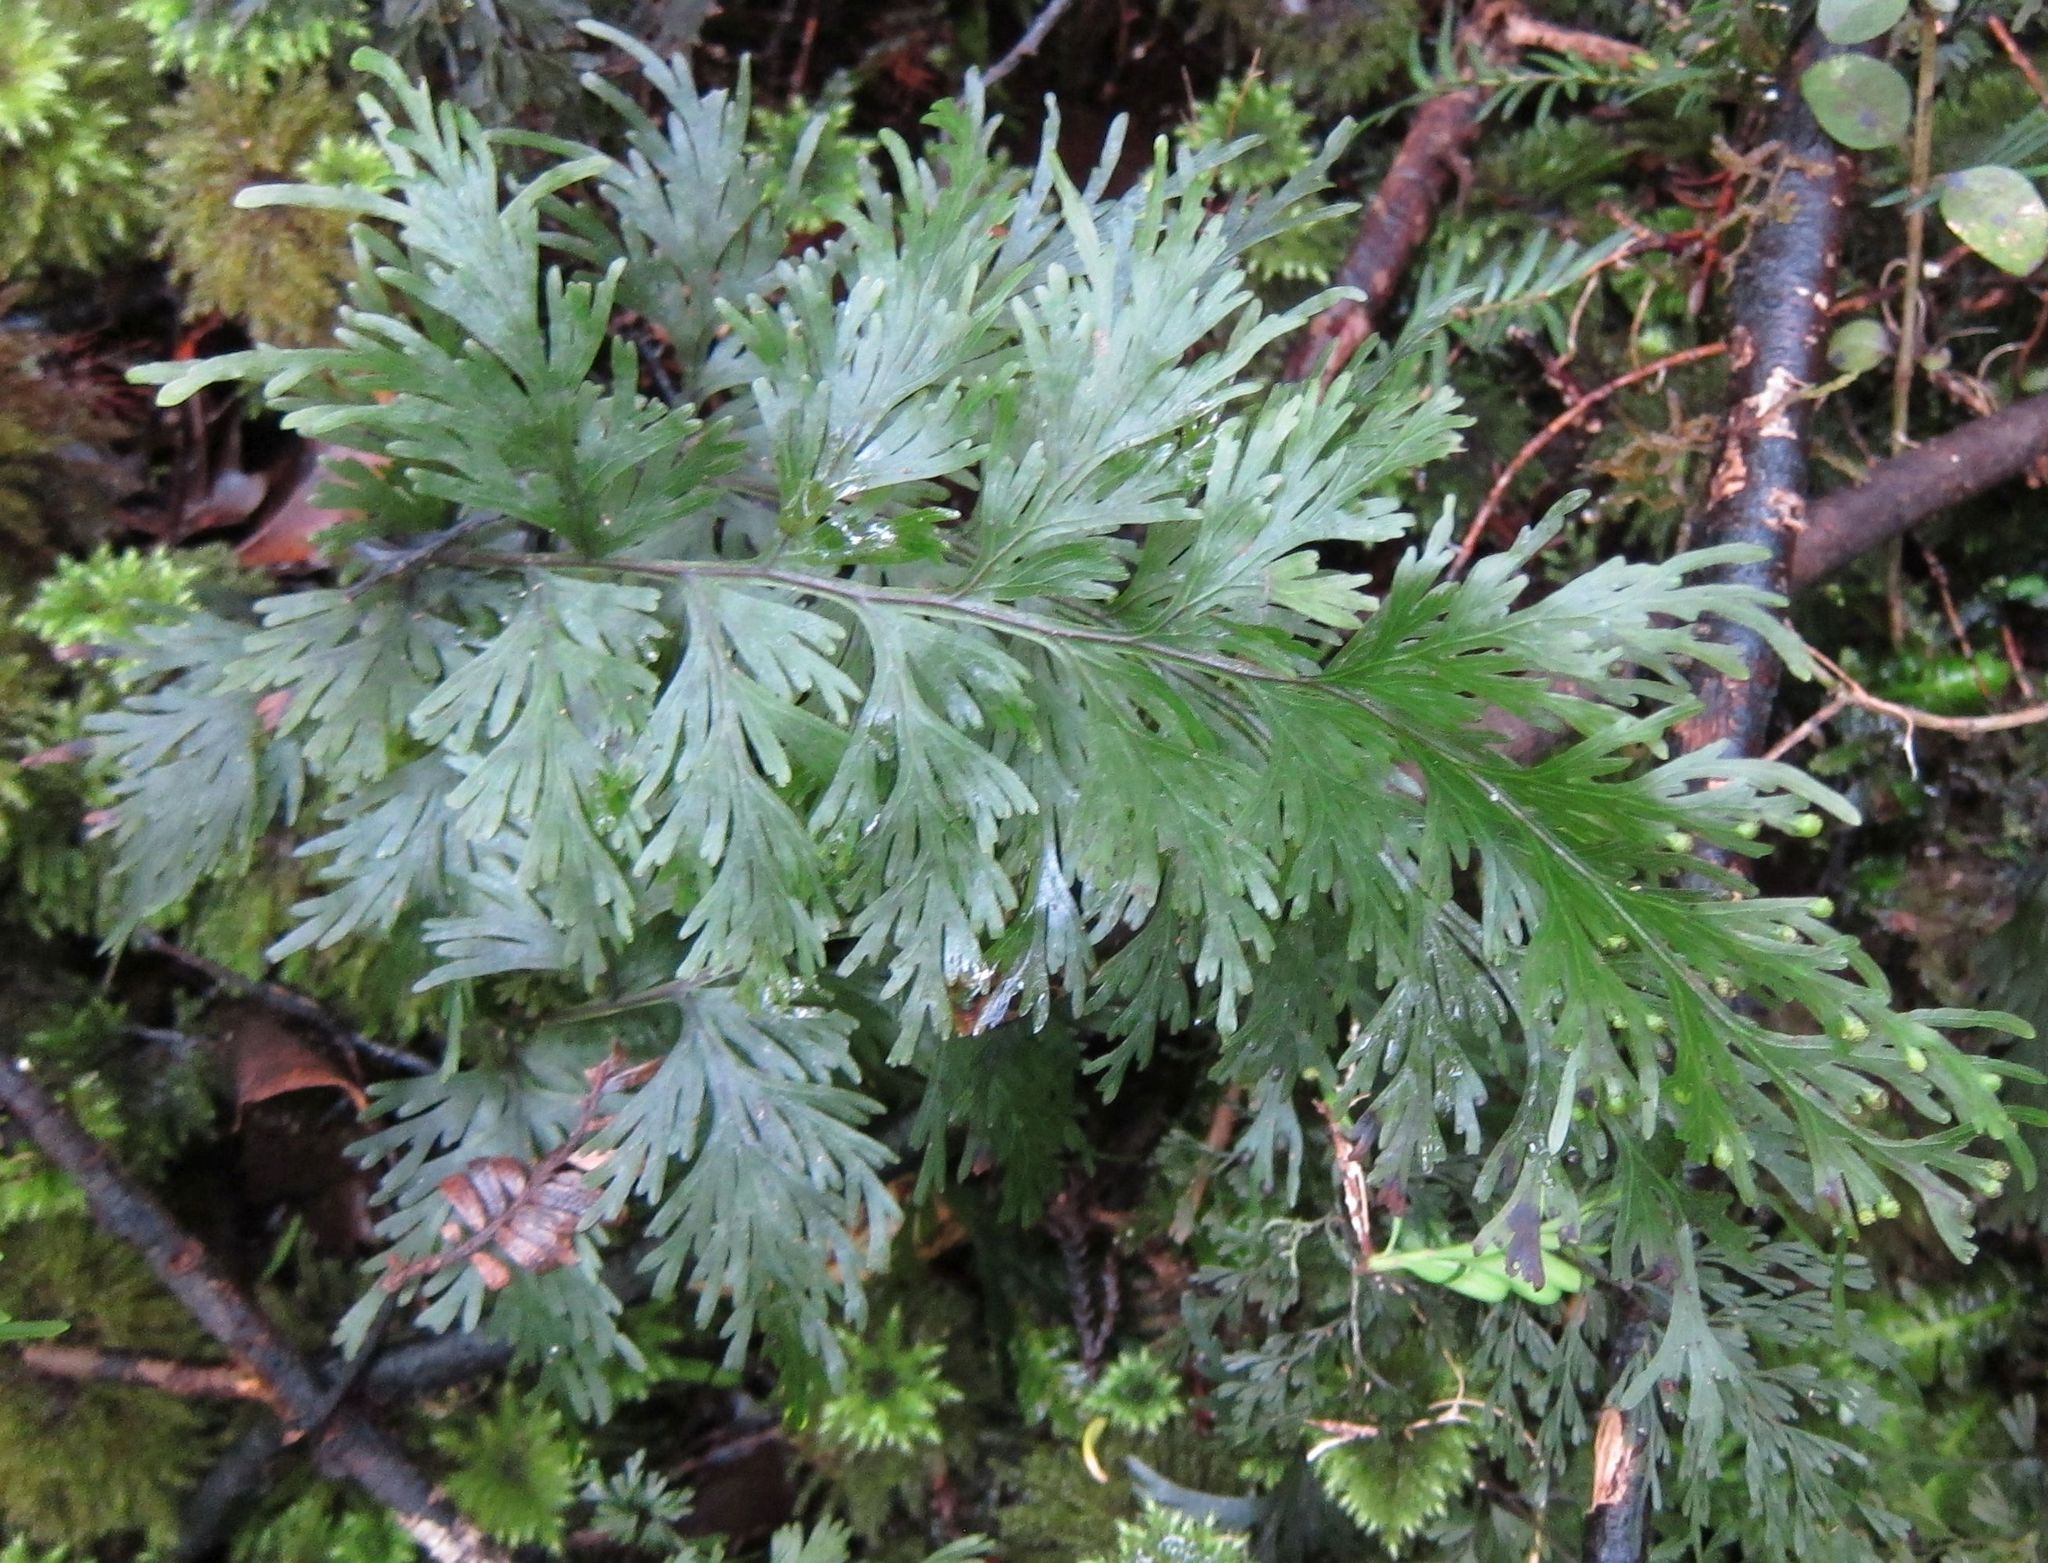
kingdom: Plantae
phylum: Tracheophyta
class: Polypodiopsida
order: Hymenophyllales
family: Hymenophyllaceae
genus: Hymenophyllum
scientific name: Hymenophyllum dilatatum
